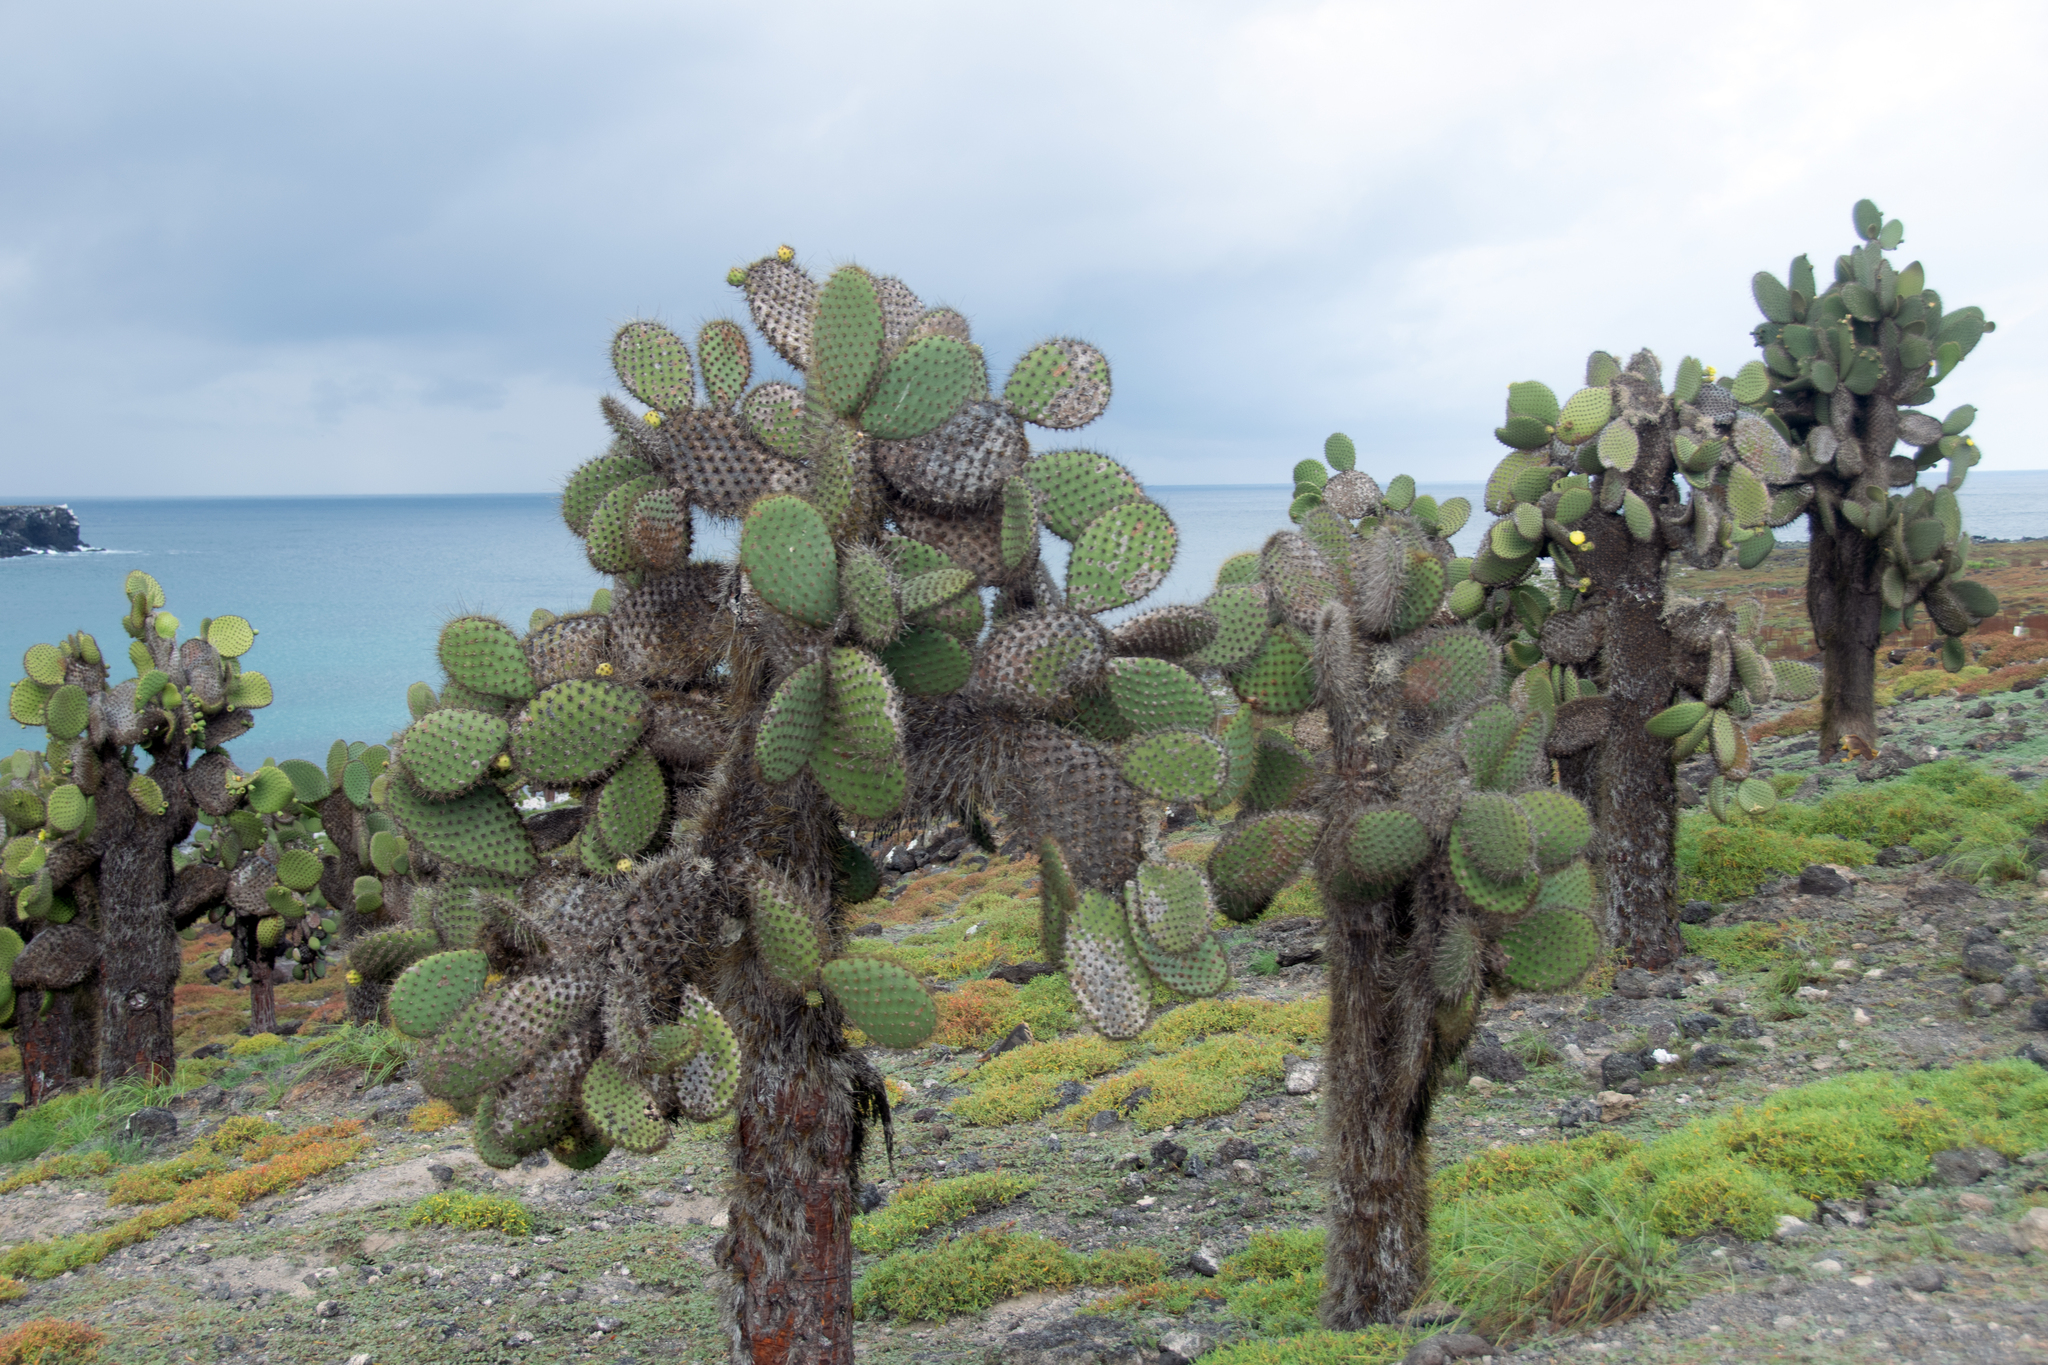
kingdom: Plantae
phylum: Tracheophyta
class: Magnoliopsida
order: Caryophyllales
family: Cactaceae
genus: Opuntia
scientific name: Opuntia galapageia
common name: Galápagos prickly pear
